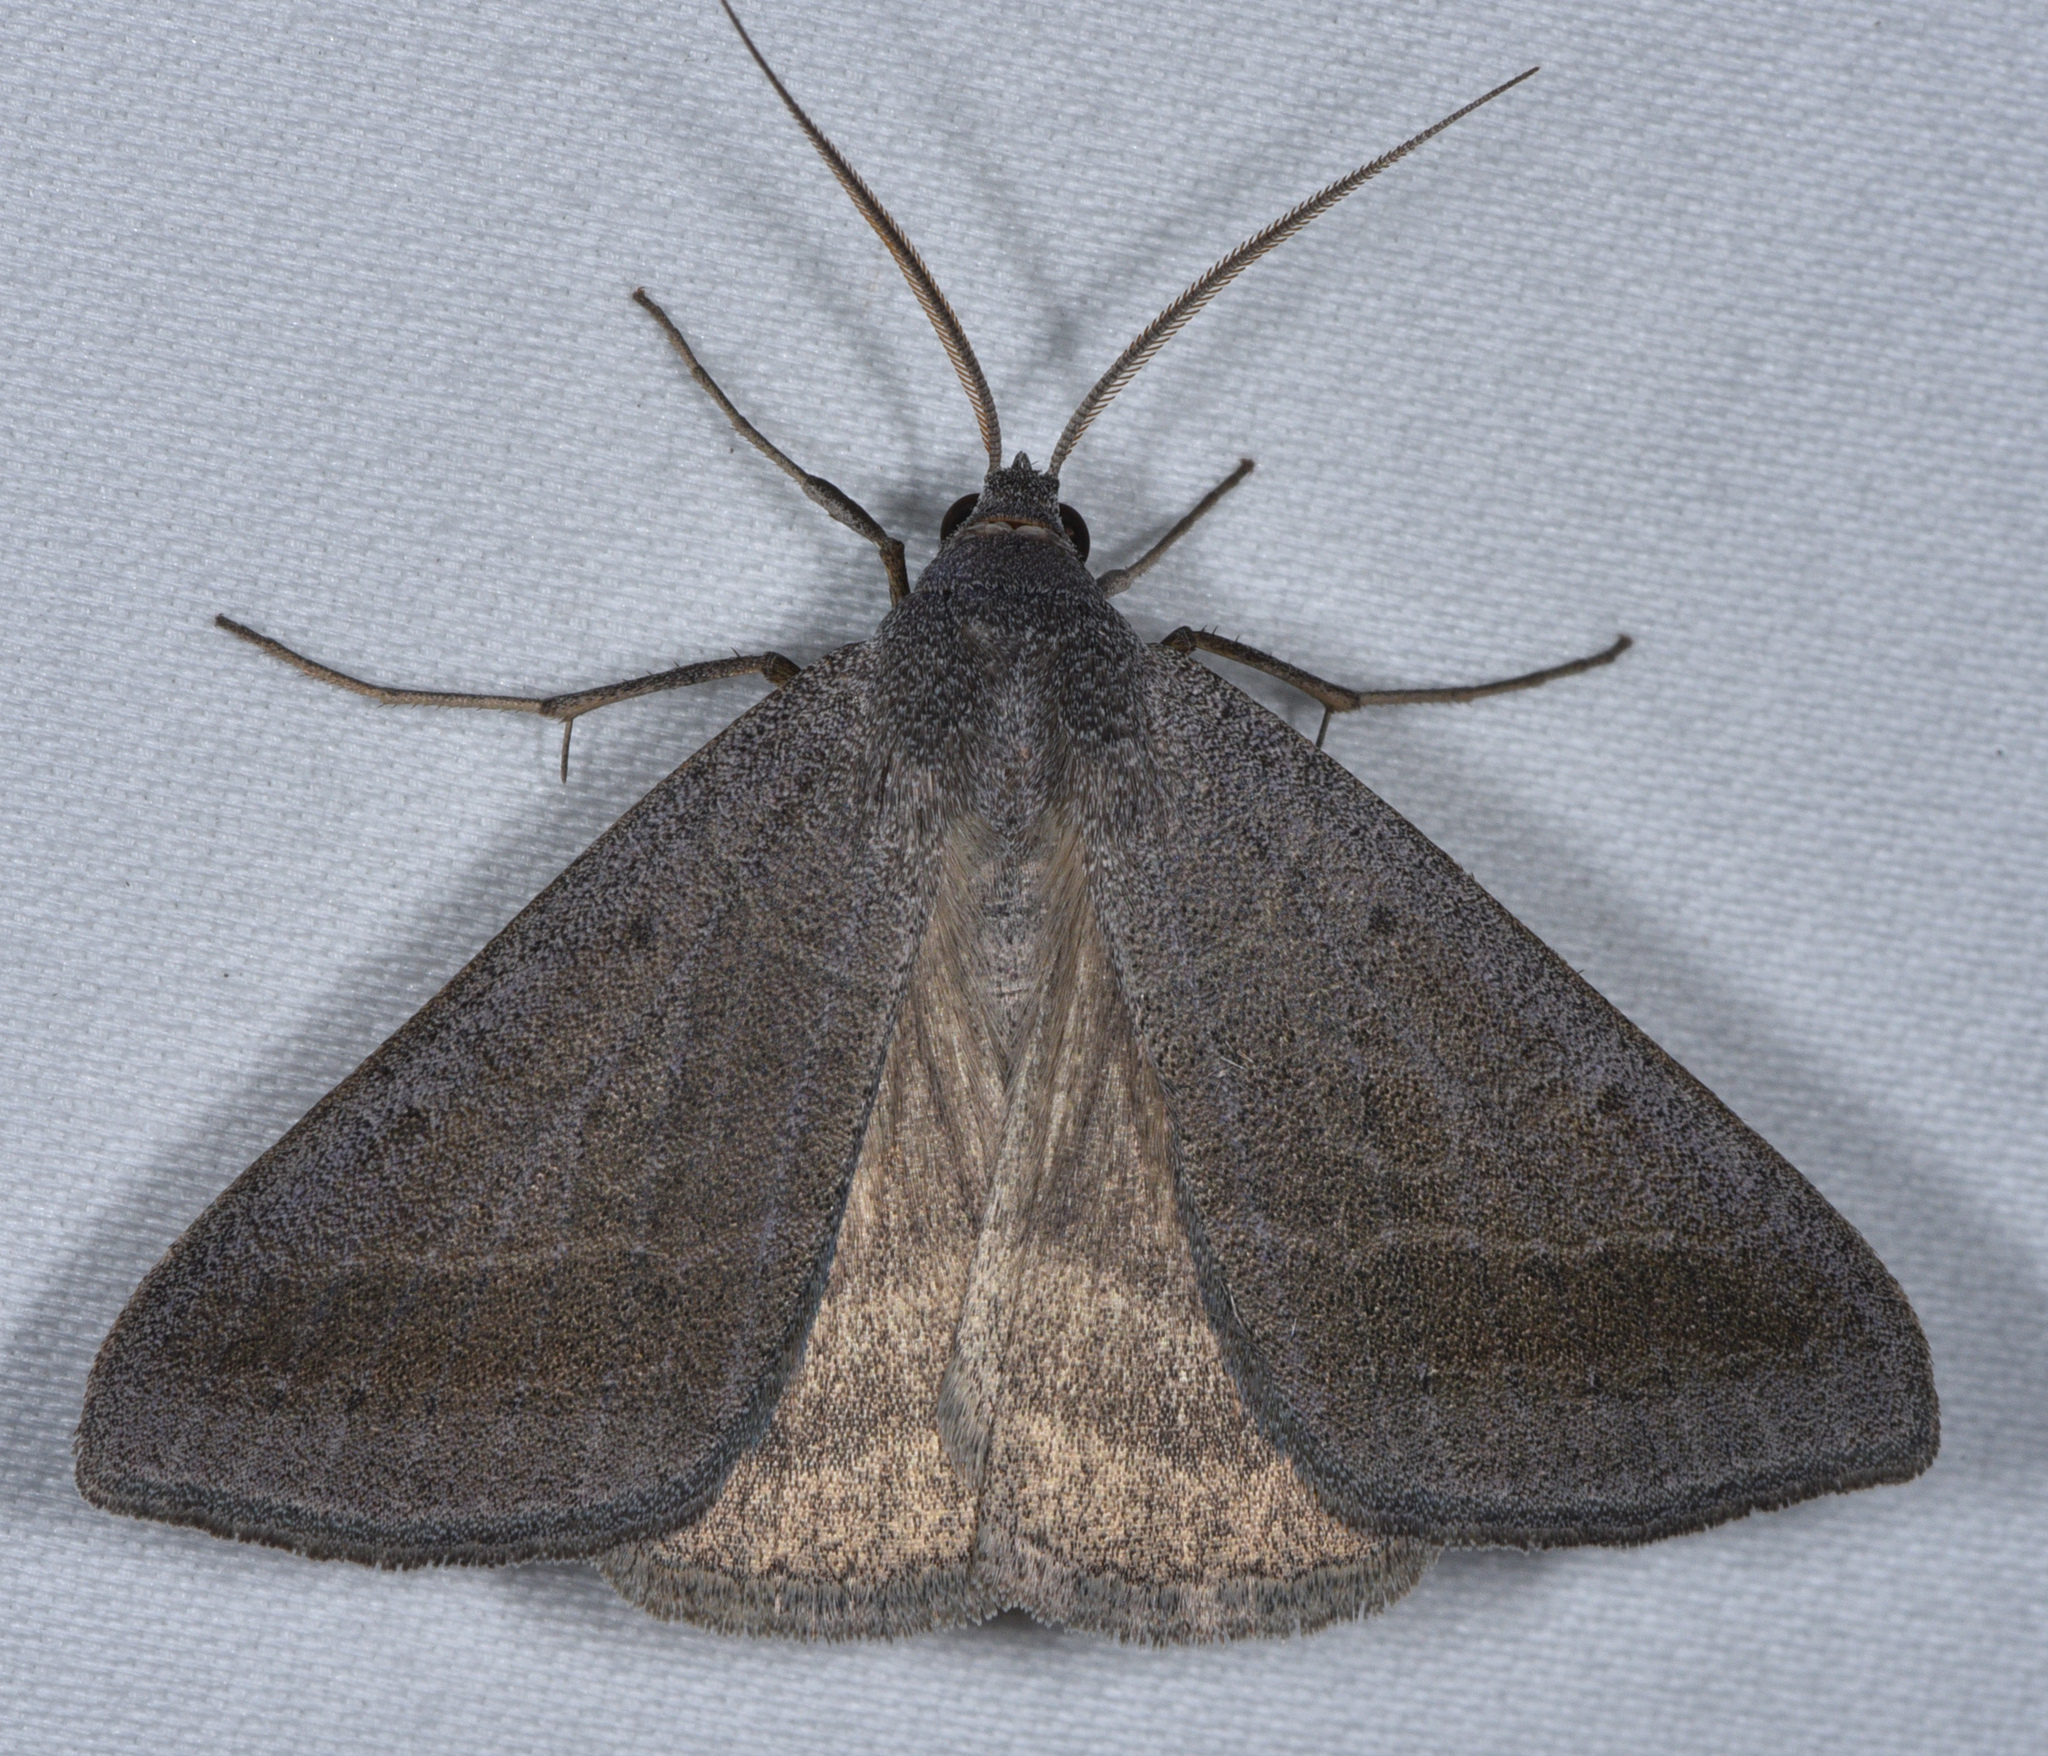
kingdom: Animalia
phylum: Arthropoda
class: Insecta
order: Lepidoptera
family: Erebidae
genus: Caenurgia
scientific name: Caenurgia togataria
